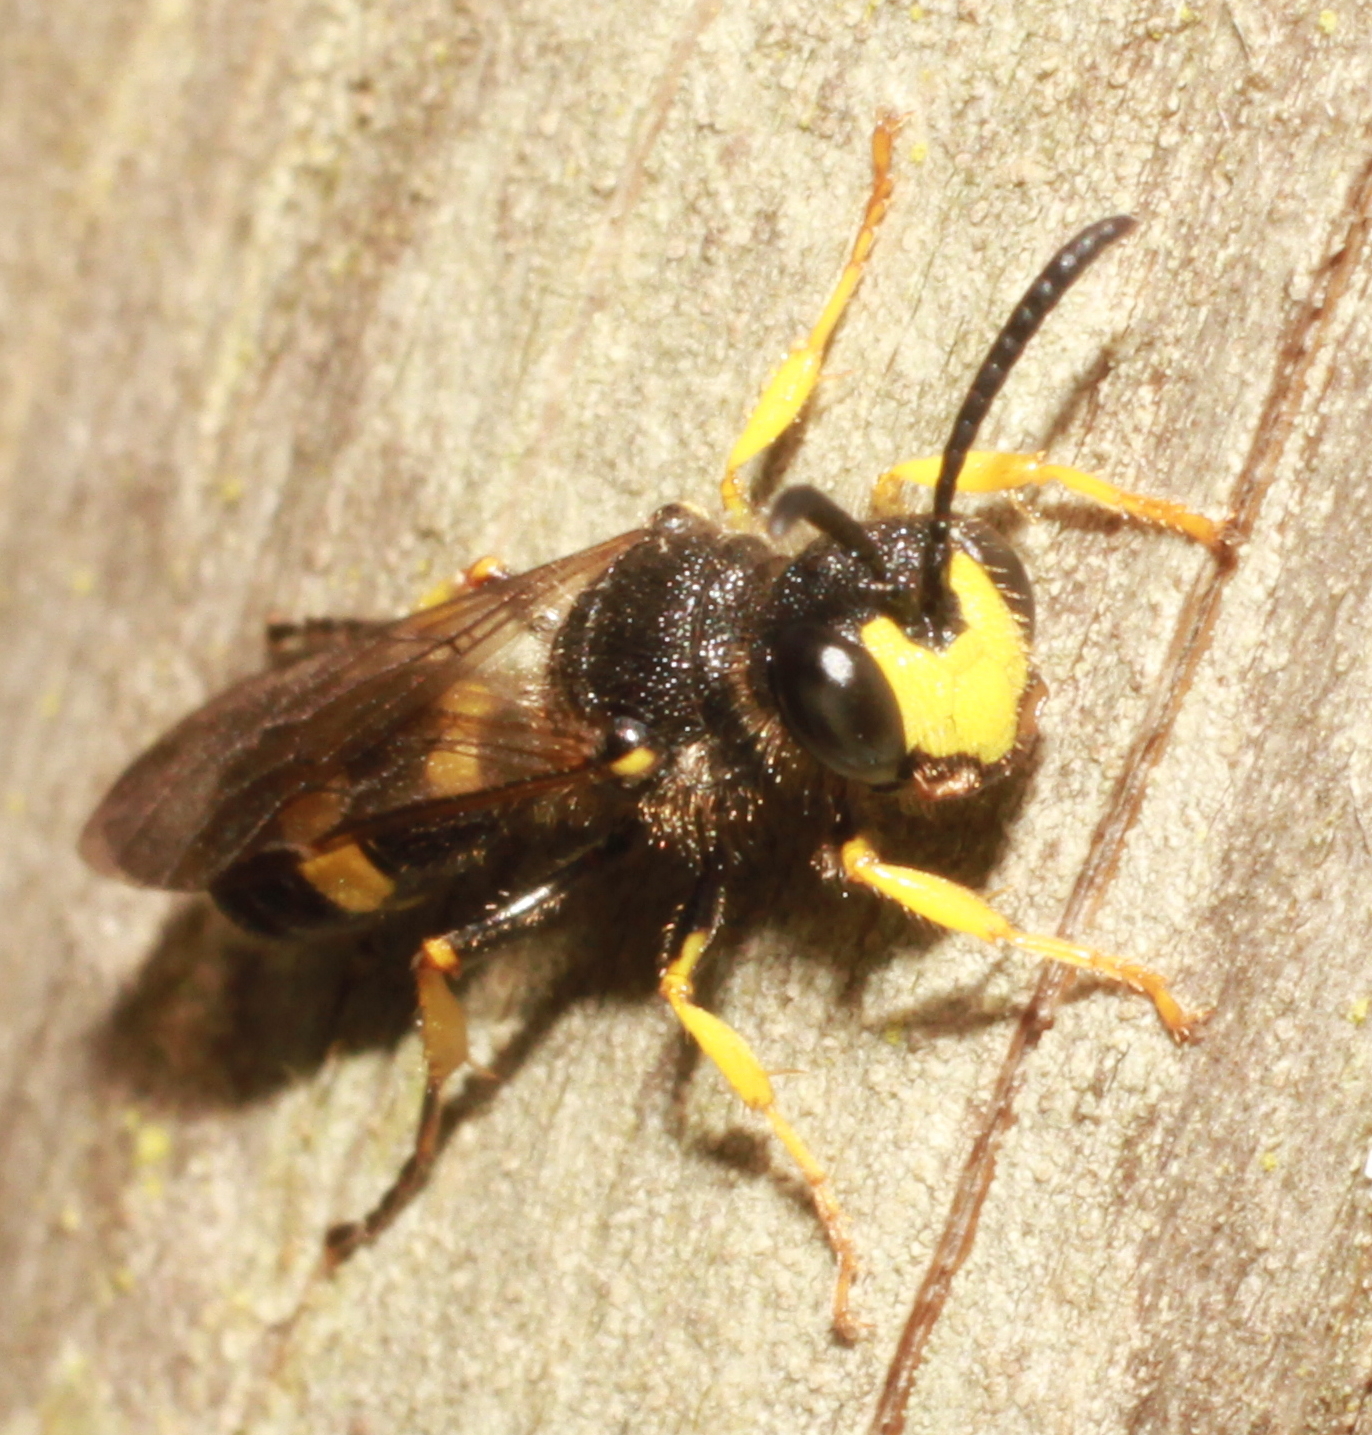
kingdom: Animalia
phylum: Arthropoda
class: Insecta
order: Hymenoptera
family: Crabronidae
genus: Cerceris
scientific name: Cerceris rybyensis
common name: Ornate tailed digger wasp
